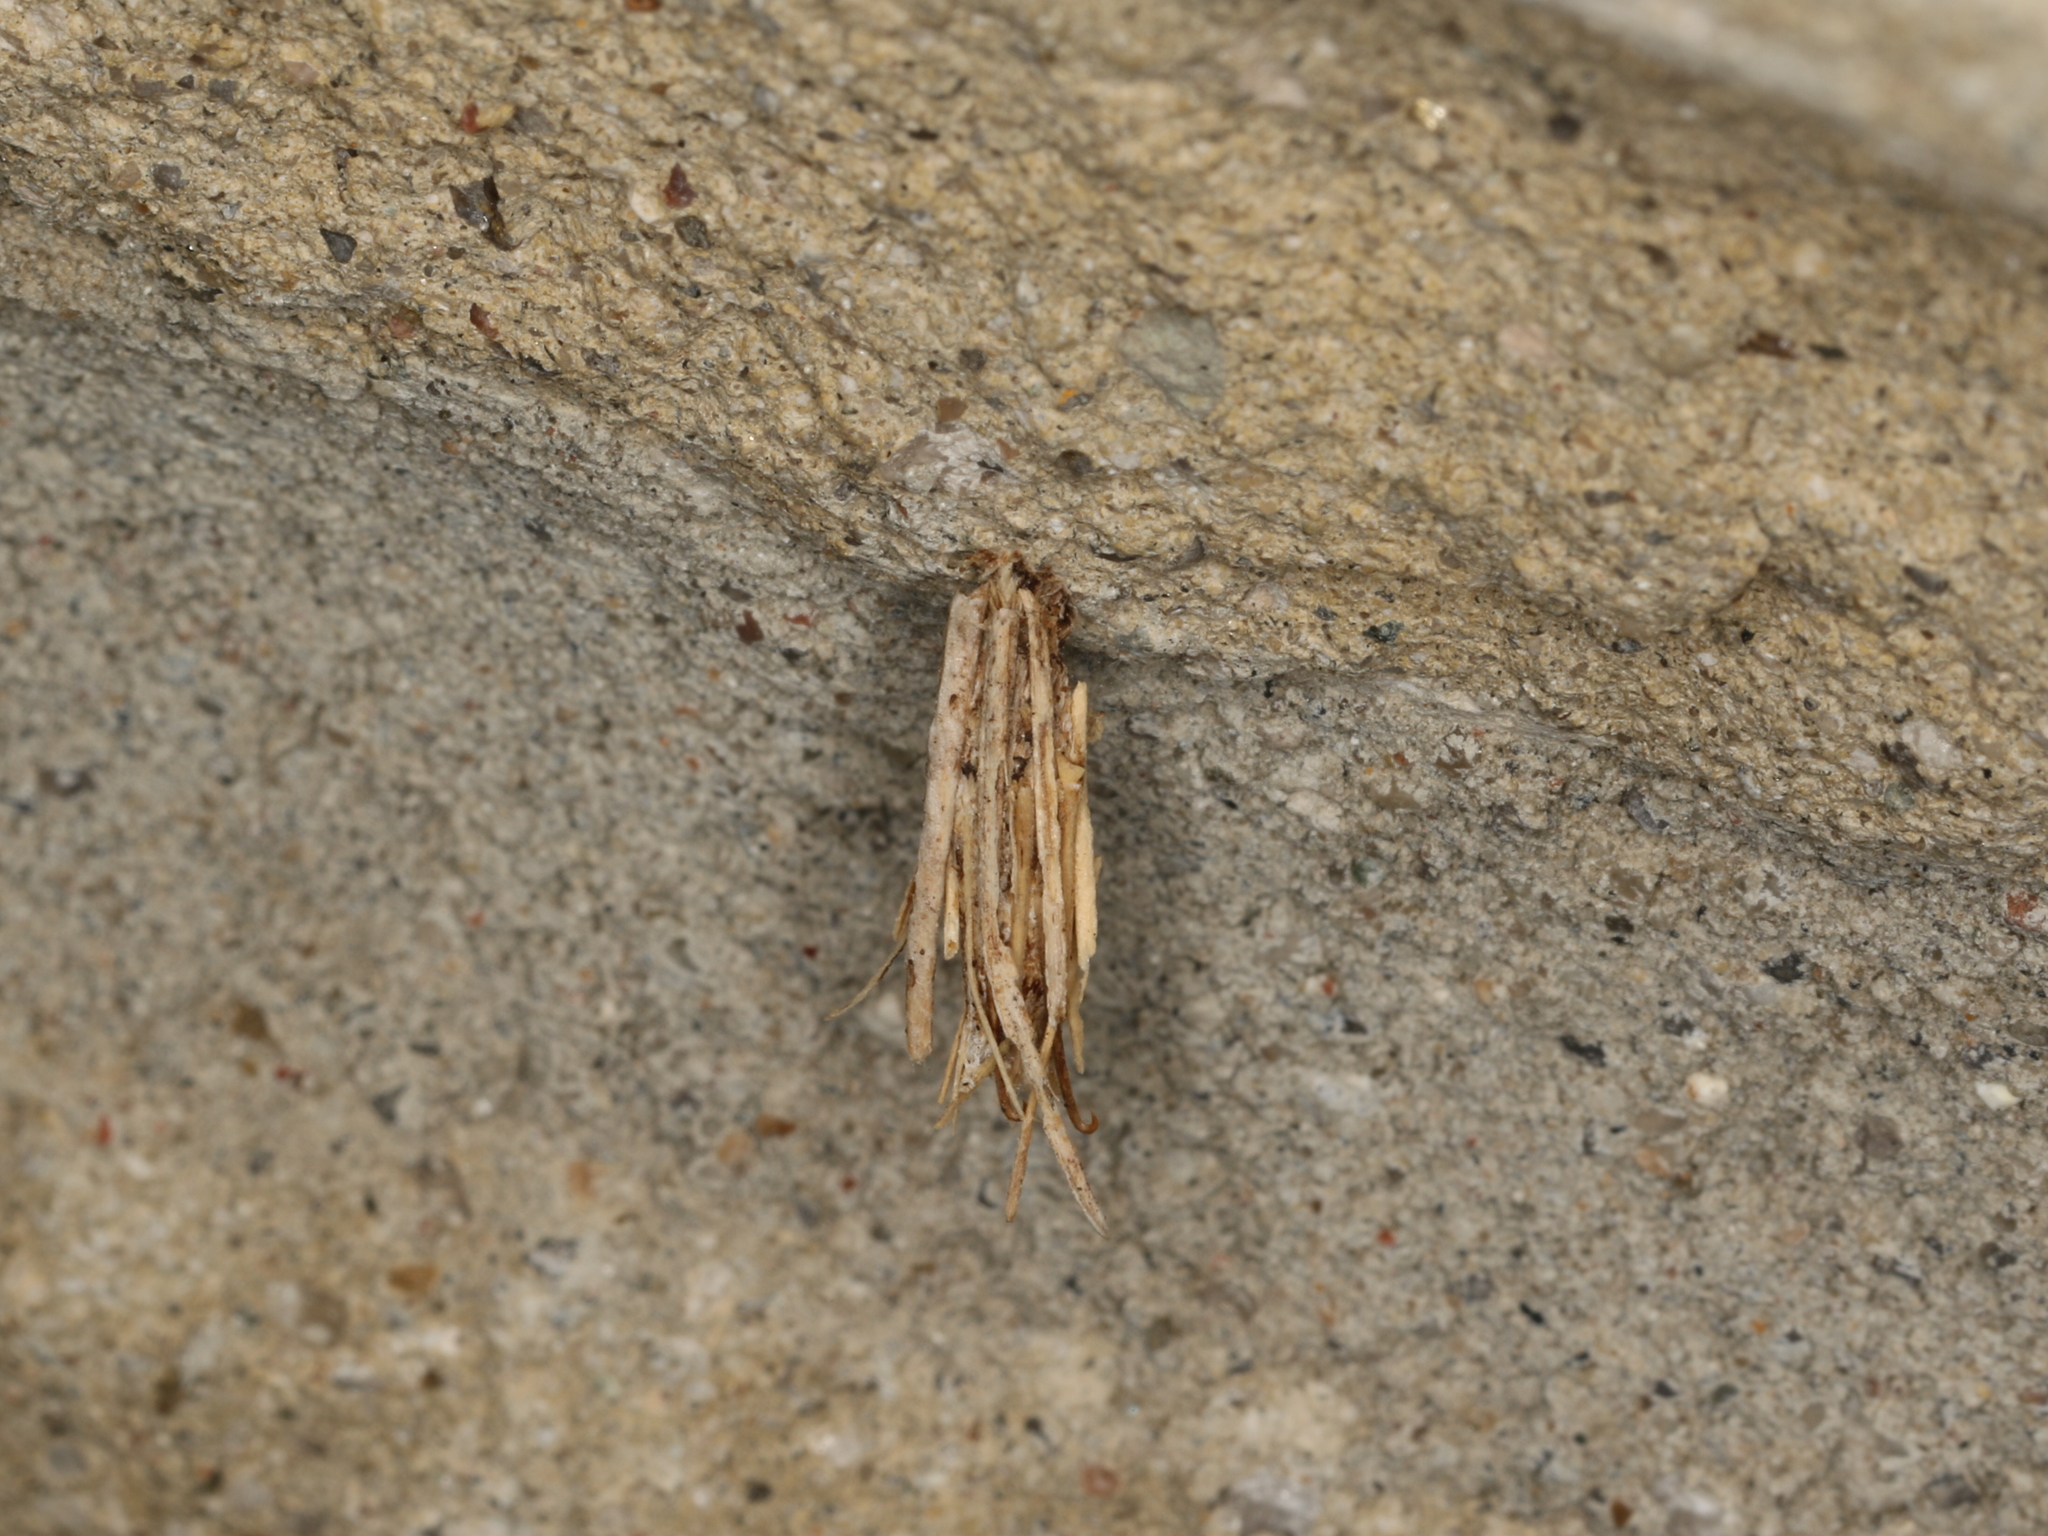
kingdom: Animalia
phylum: Arthropoda
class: Insecta
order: Lepidoptera
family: Psychidae
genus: Psyche
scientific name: Psyche casta
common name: Common sweep
